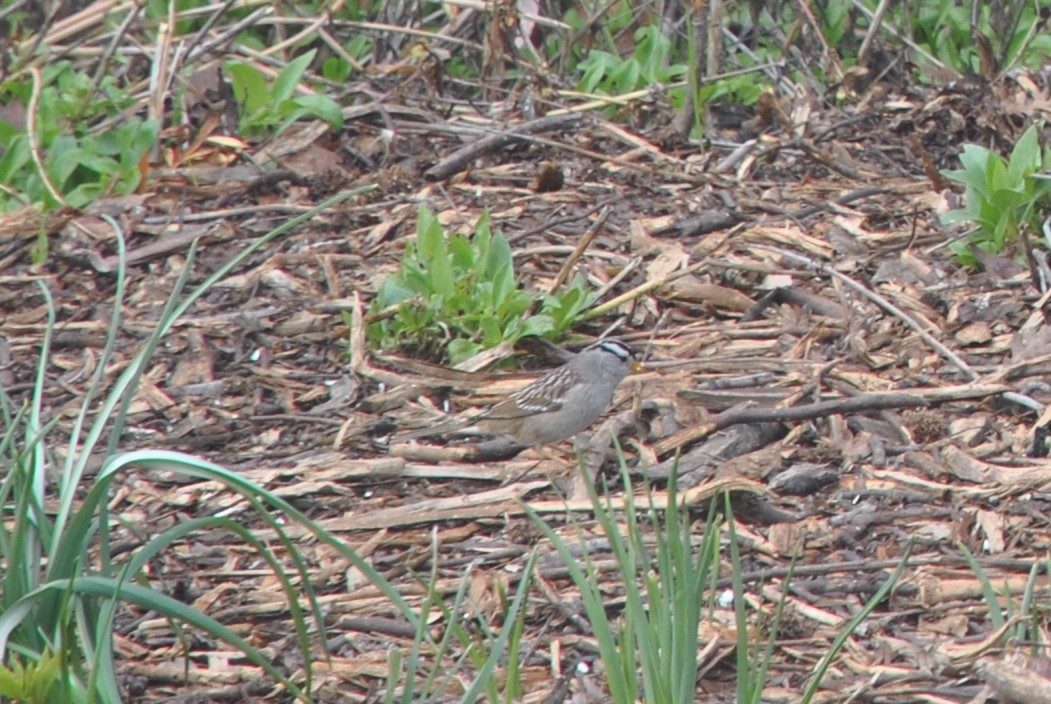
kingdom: Animalia
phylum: Chordata
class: Aves
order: Passeriformes
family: Passerellidae
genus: Zonotrichia
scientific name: Zonotrichia leucophrys
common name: White-crowned sparrow
